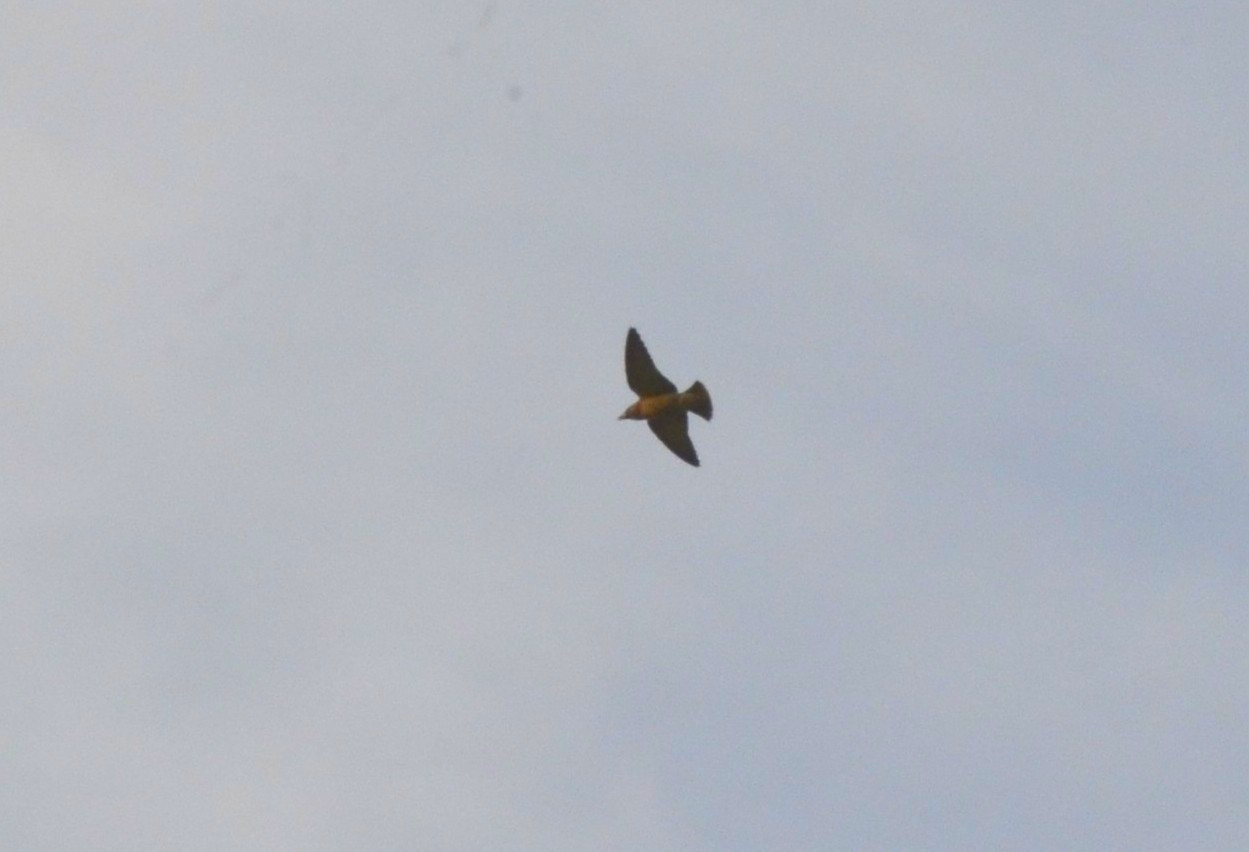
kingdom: Animalia
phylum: Chordata
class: Aves
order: Passeriformes
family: Artamidae
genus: Artamus
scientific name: Artamus fuscus
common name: Ashy woodswallow
